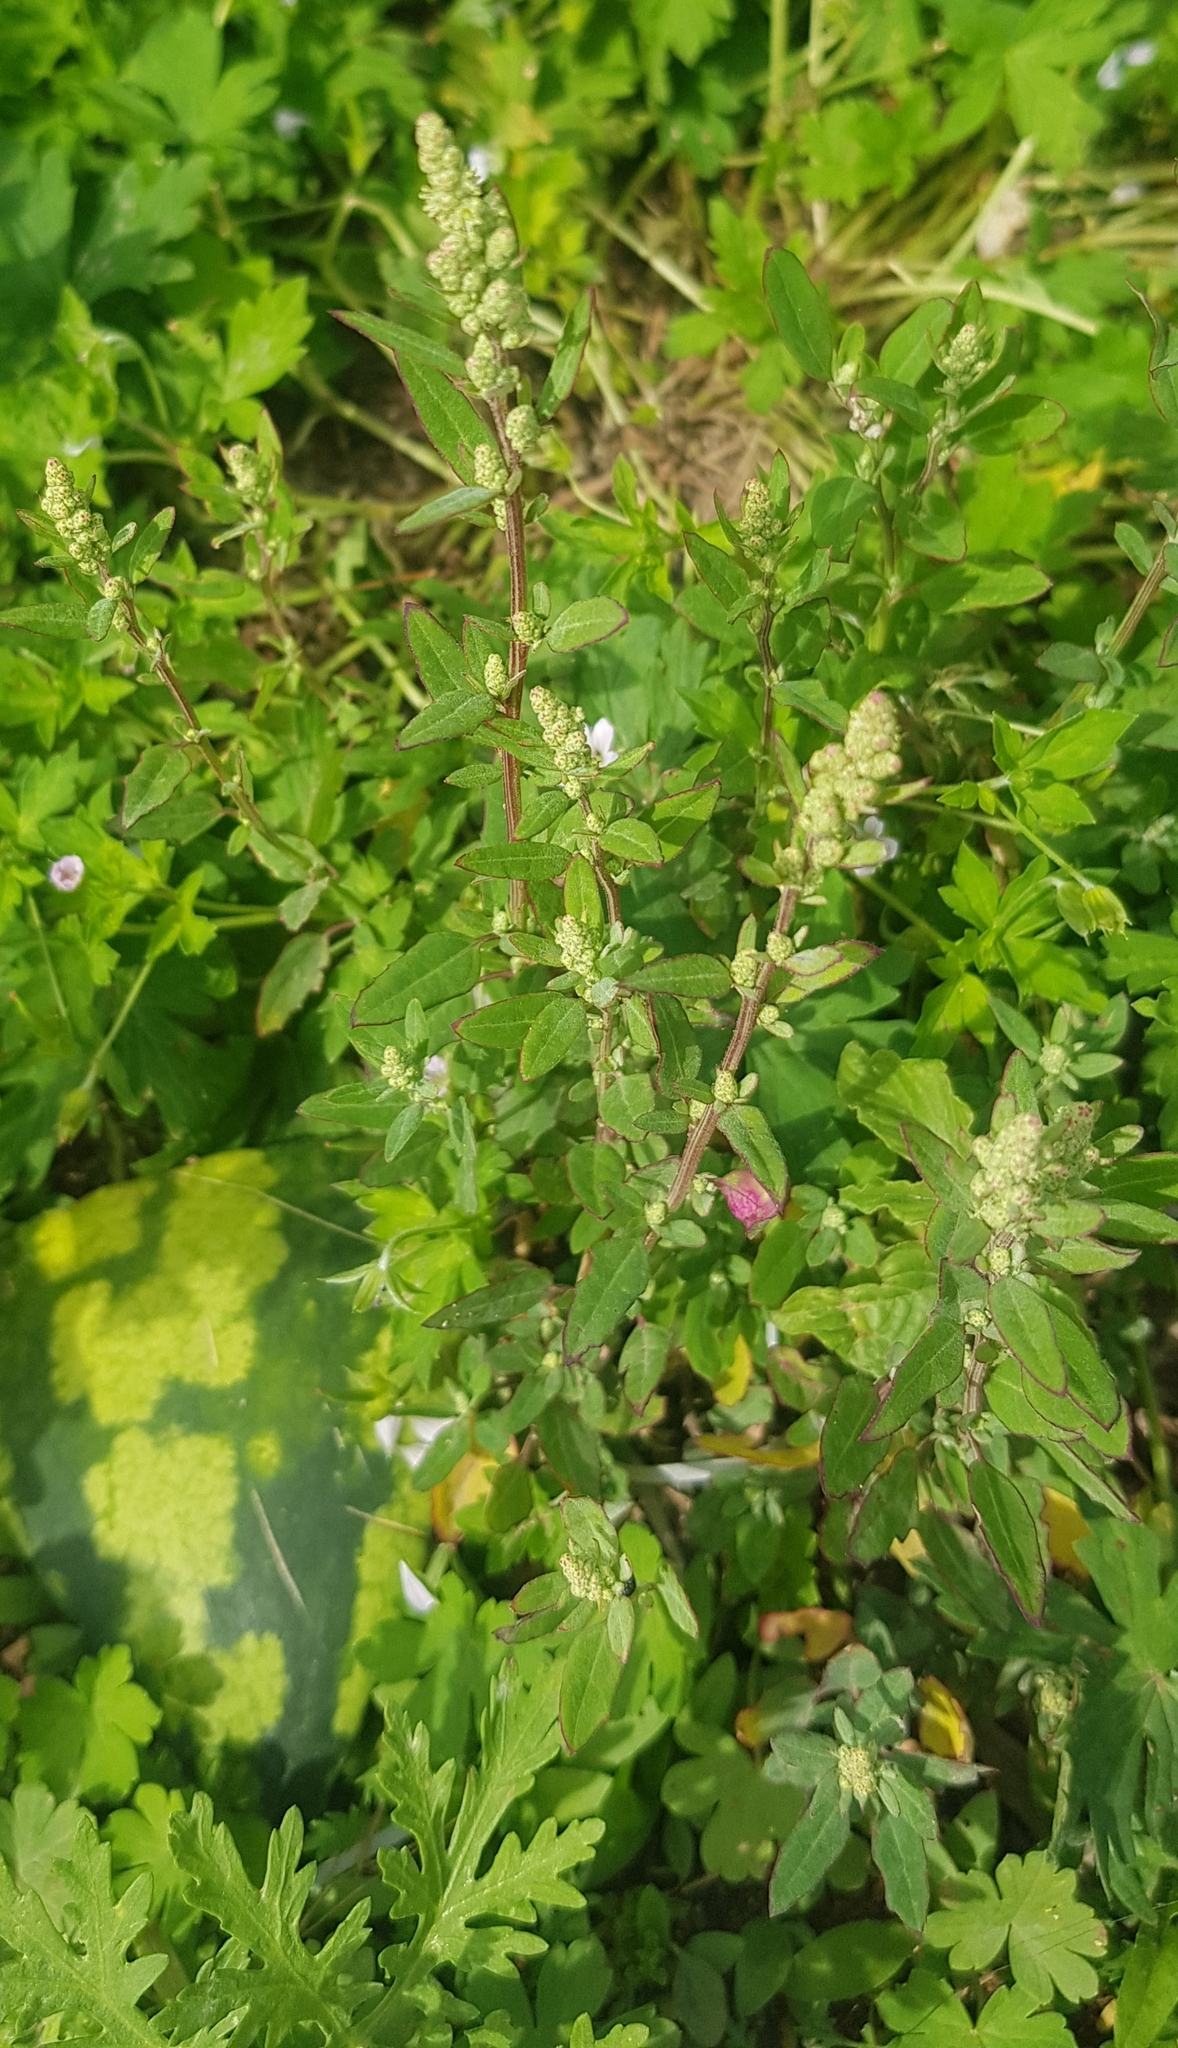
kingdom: Plantae
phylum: Tracheophyta
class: Magnoliopsida
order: Caryophyllales
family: Amaranthaceae
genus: Chenopodium
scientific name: Chenopodium album
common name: Fat-hen
